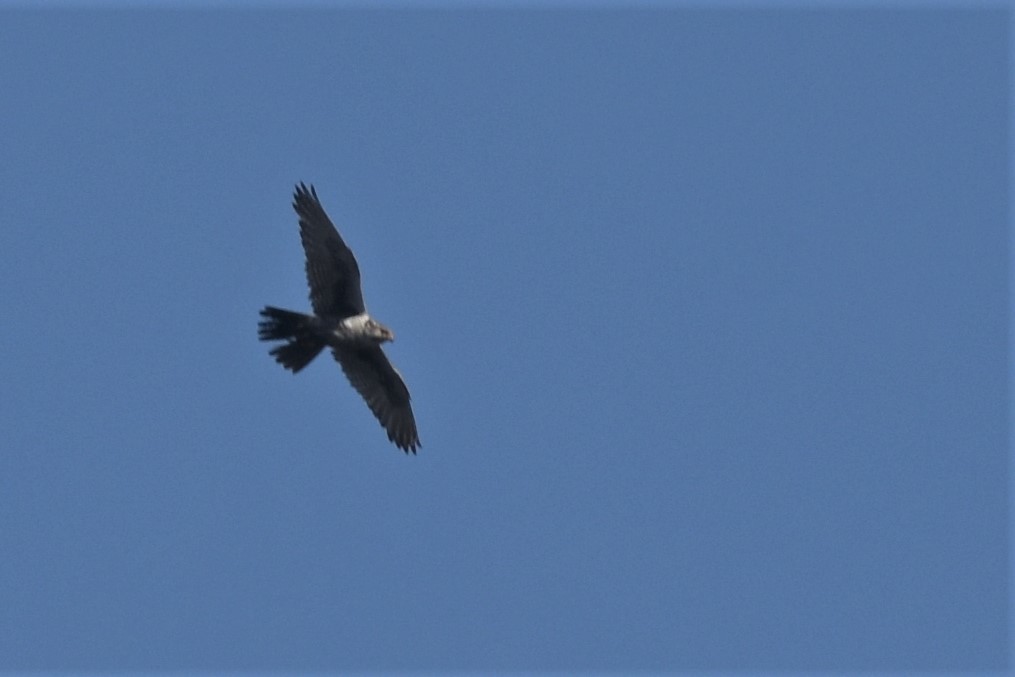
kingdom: Animalia
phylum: Chordata
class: Aves
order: Falconiformes
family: Falconidae
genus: Falco
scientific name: Falco mexicanus
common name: Prairie falcon
